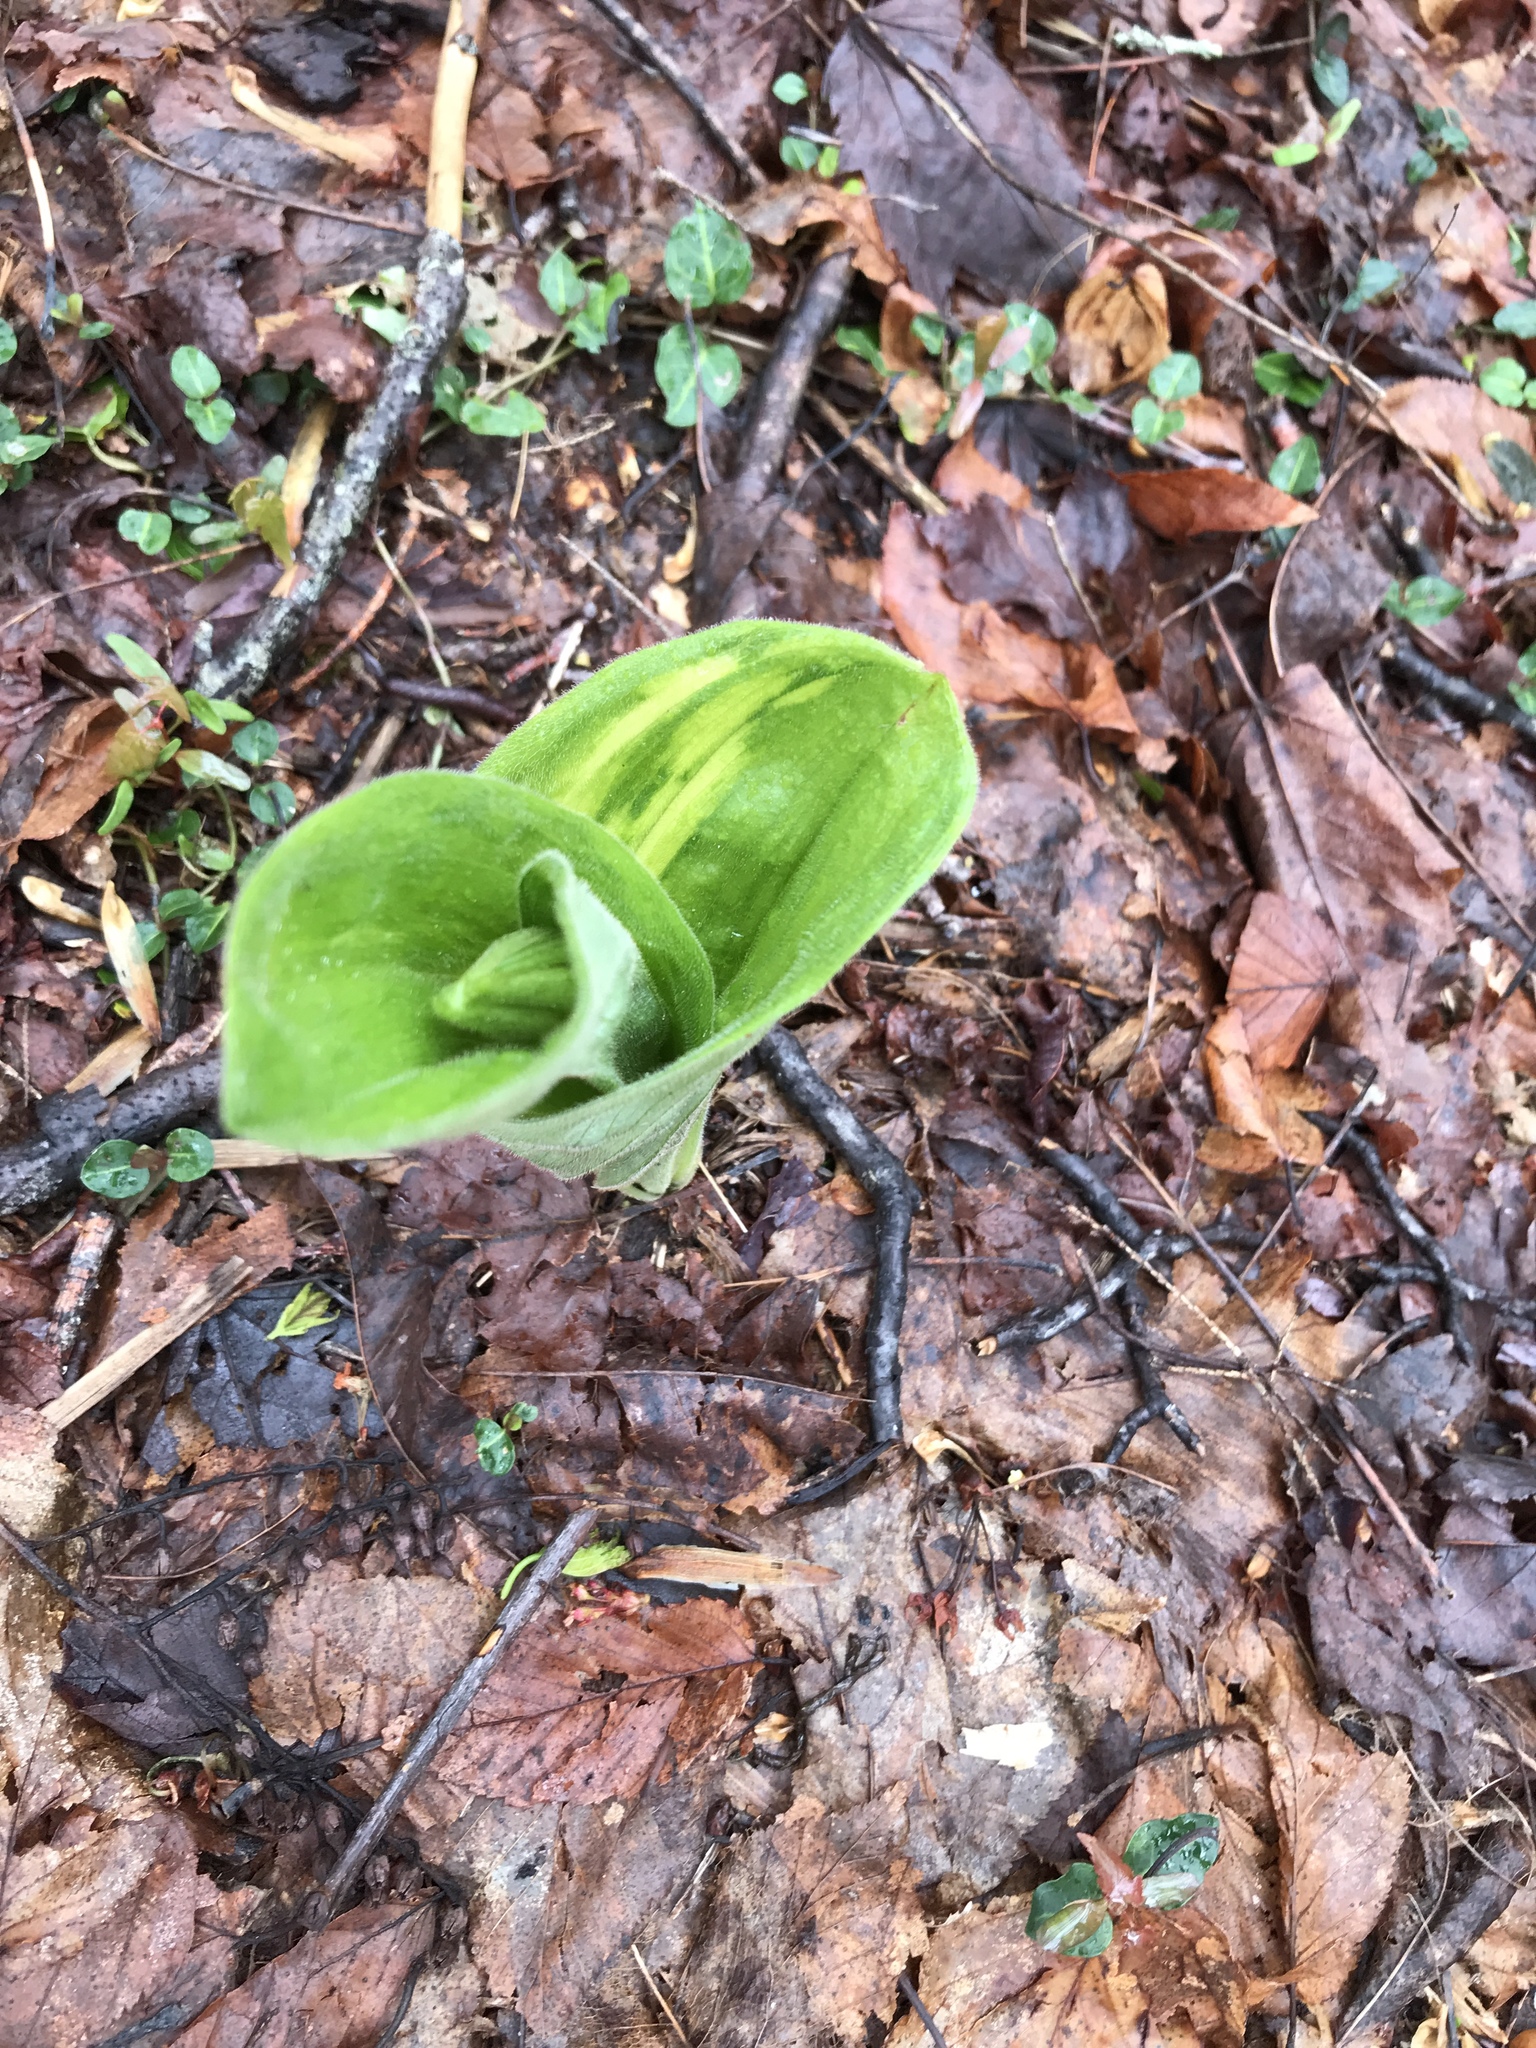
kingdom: Plantae
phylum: Tracheophyta
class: Liliopsida
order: Asparagales
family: Orchidaceae
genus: Cypripedium
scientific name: Cypripedium acaule
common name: Pink lady's-slipper
